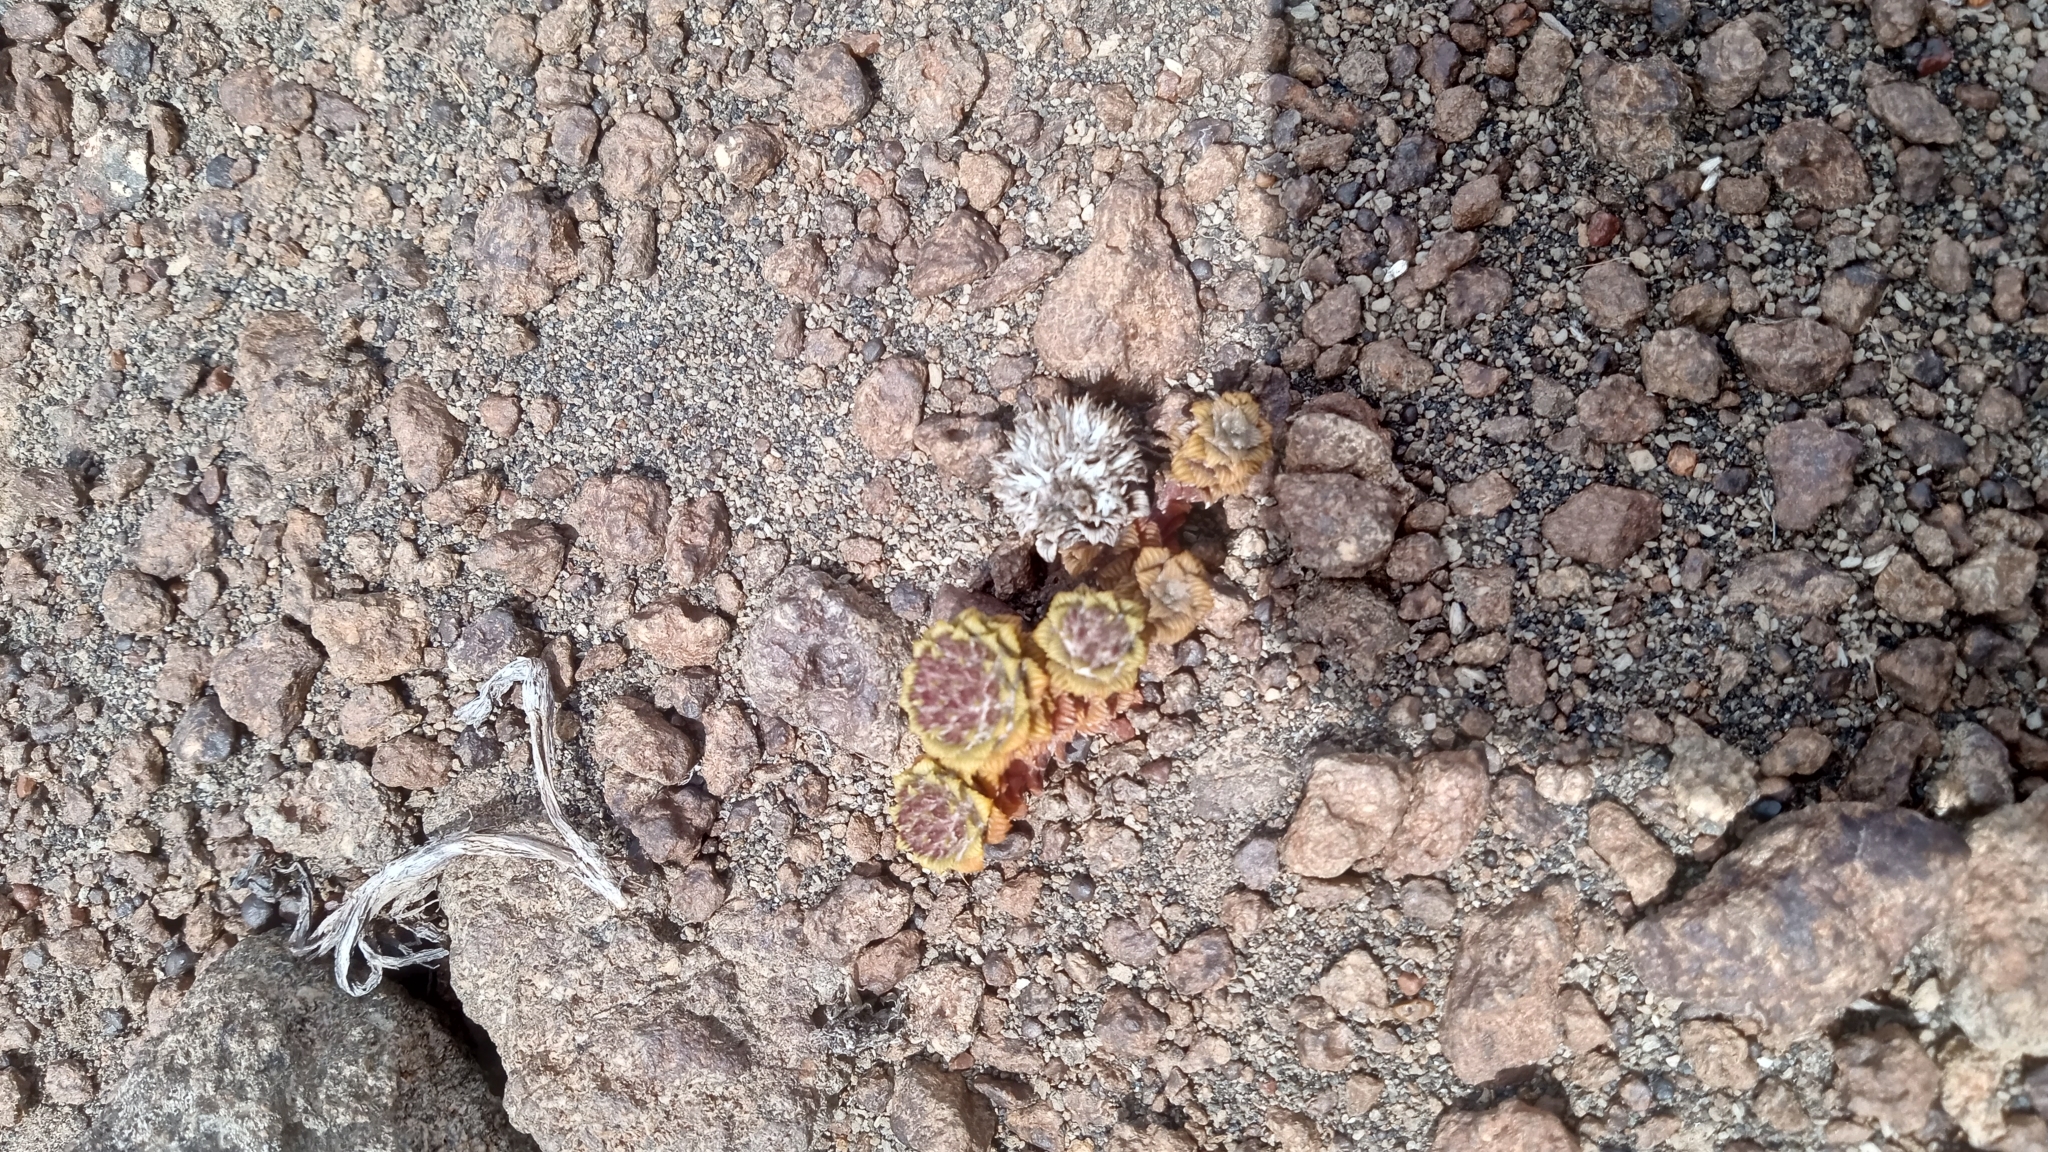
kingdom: Plantae
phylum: Tracheophyta
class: Magnoliopsida
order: Asterales
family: Asteraceae
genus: Nassauvia
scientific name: Nassauvia lagascae
